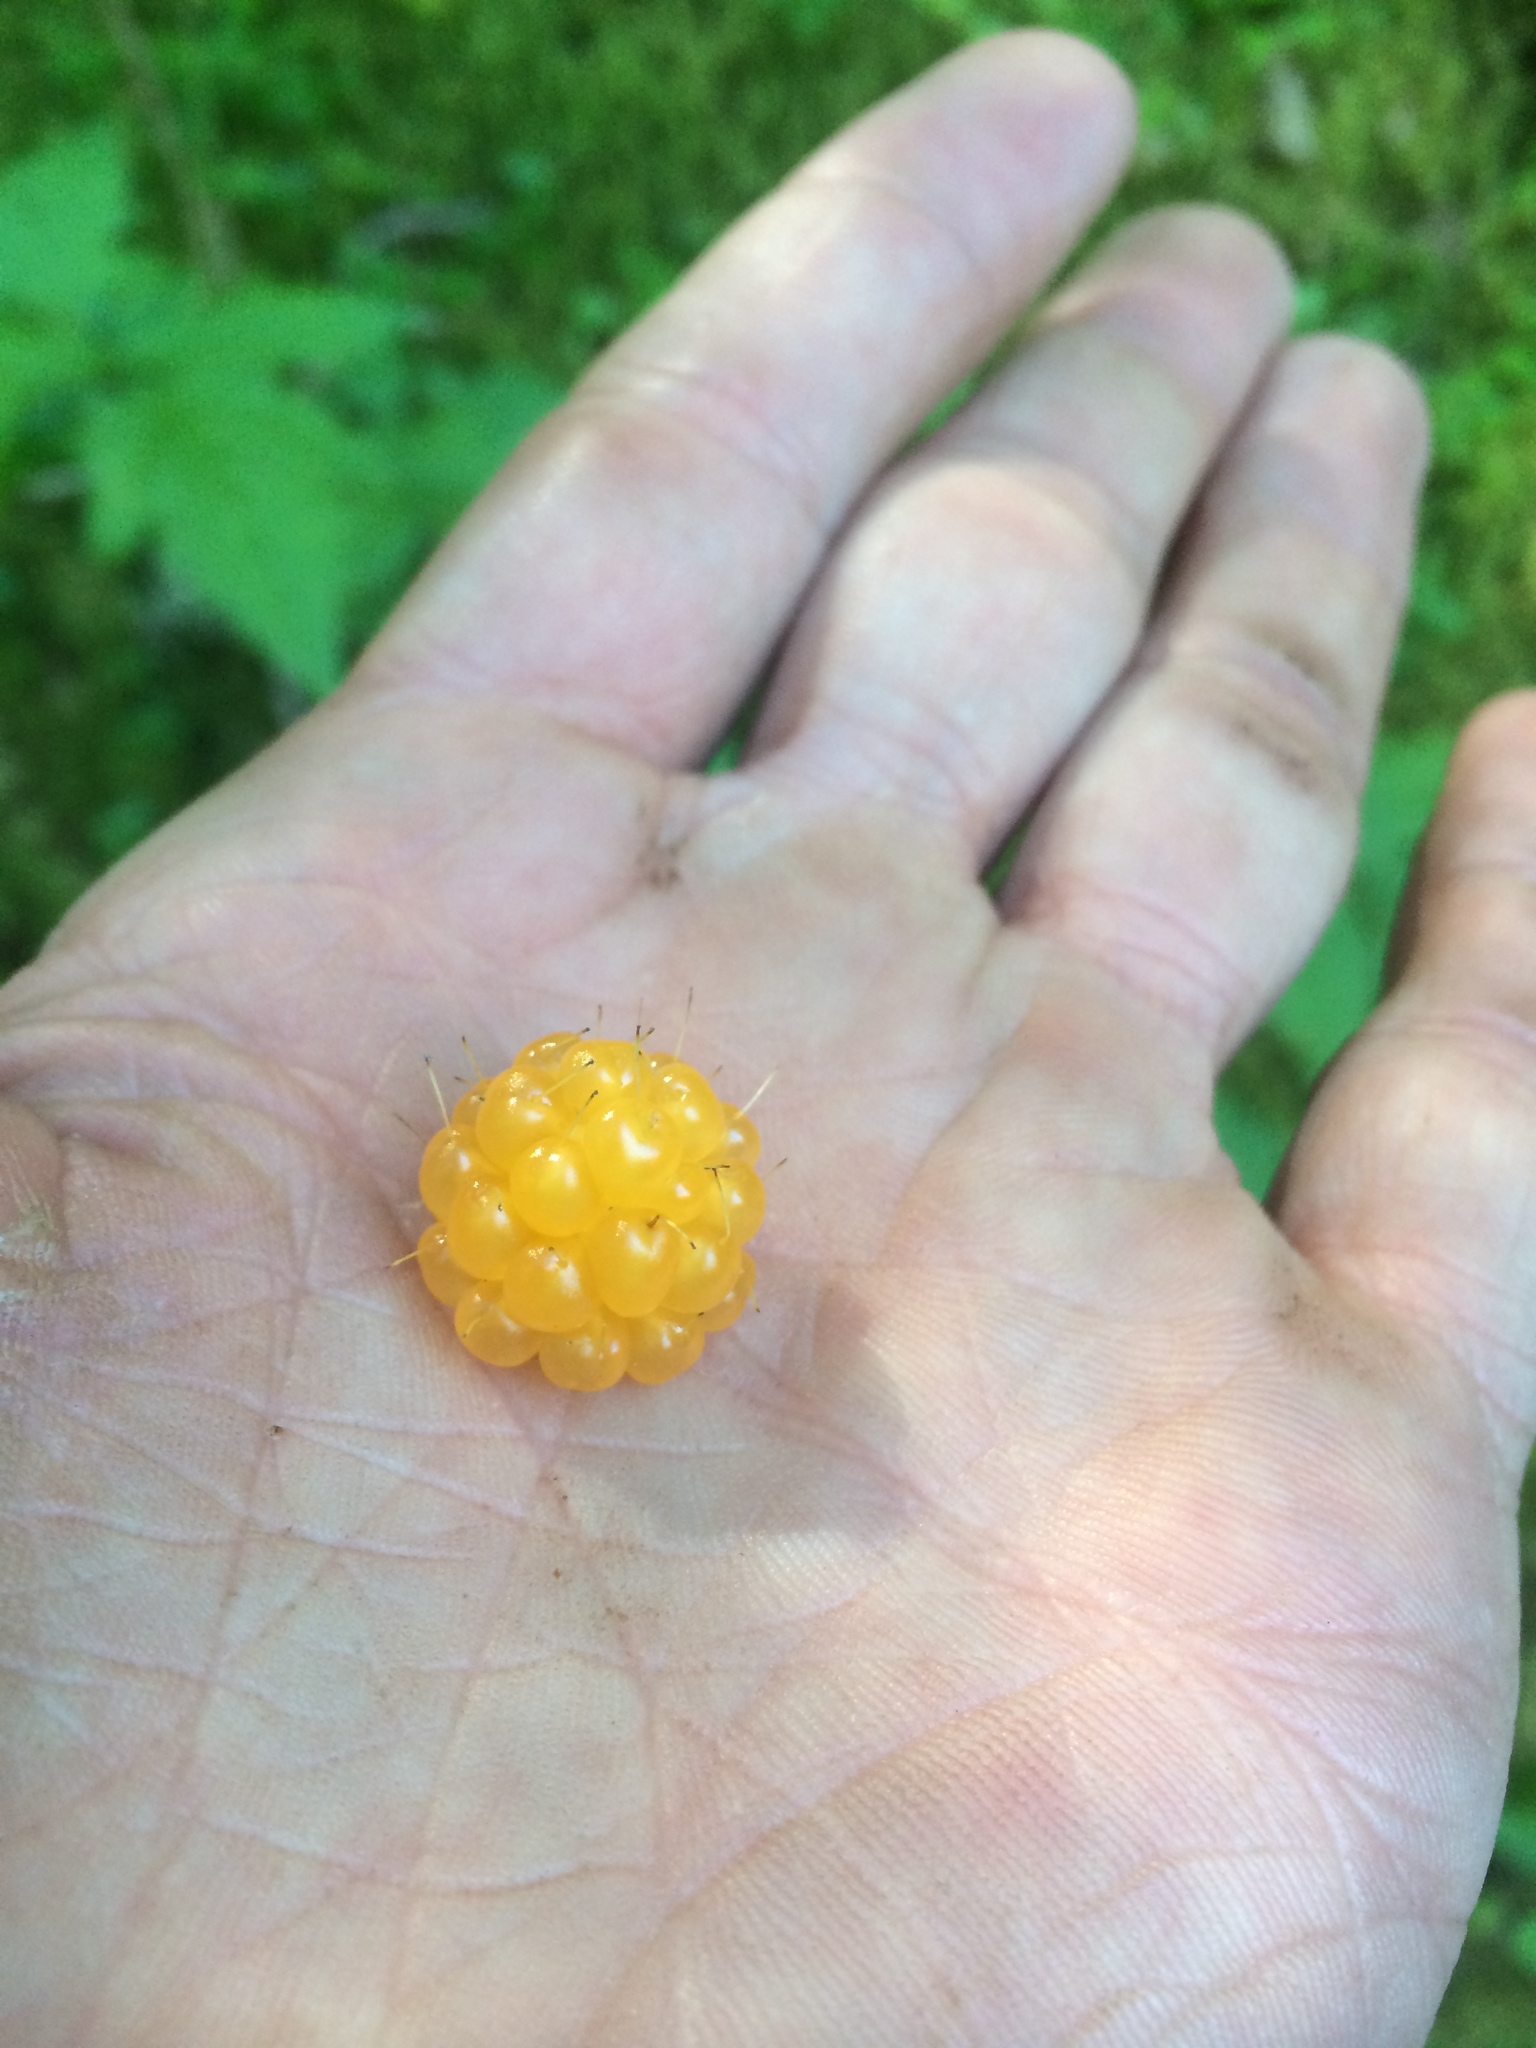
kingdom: Plantae
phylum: Tracheophyta
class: Magnoliopsida
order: Rosales
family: Rosaceae
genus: Rubus
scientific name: Rubus spectabilis
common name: Salmonberry
